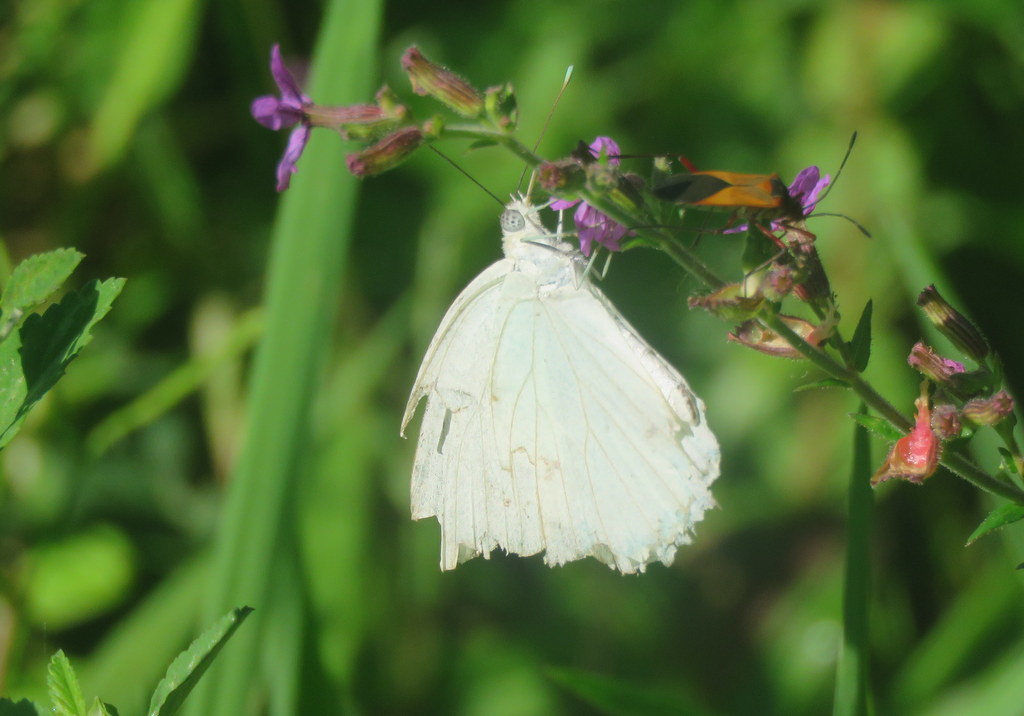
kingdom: Animalia
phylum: Arthropoda
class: Insecta
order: Lepidoptera
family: Pieridae
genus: Ascia
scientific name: Ascia monuste
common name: Great southern white
